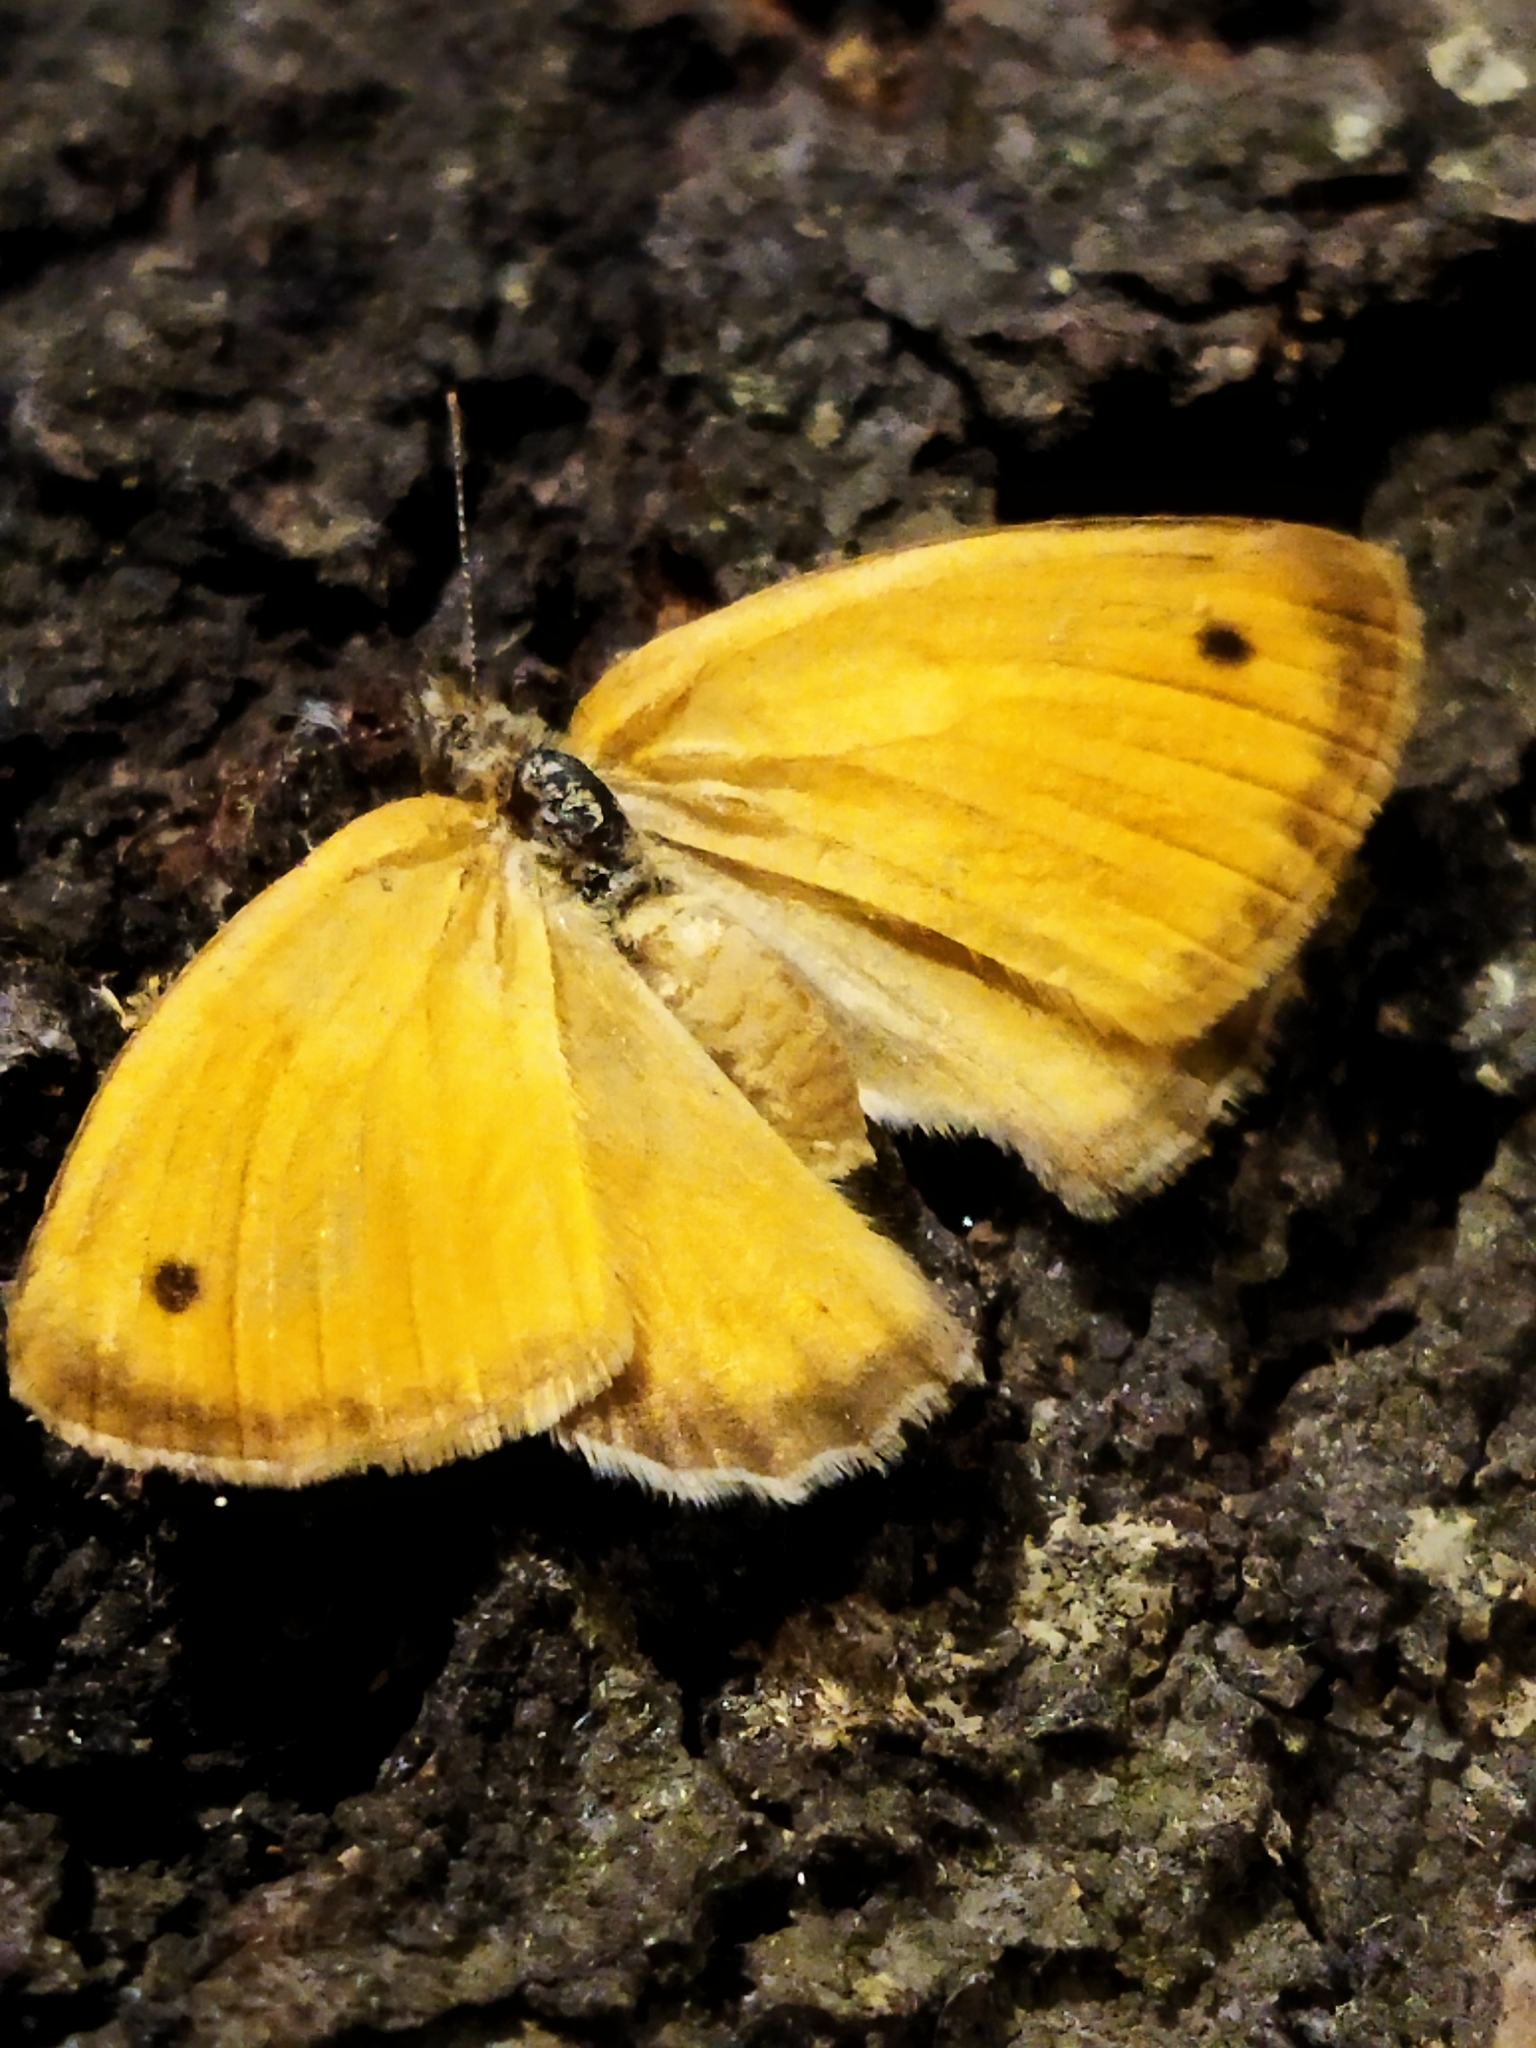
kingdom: Animalia
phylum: Arthropoda
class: Insecta
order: Lepidoptera
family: Nymphalidae
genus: Coenonympha
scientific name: Coenonympha pamphilus
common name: Small heath
